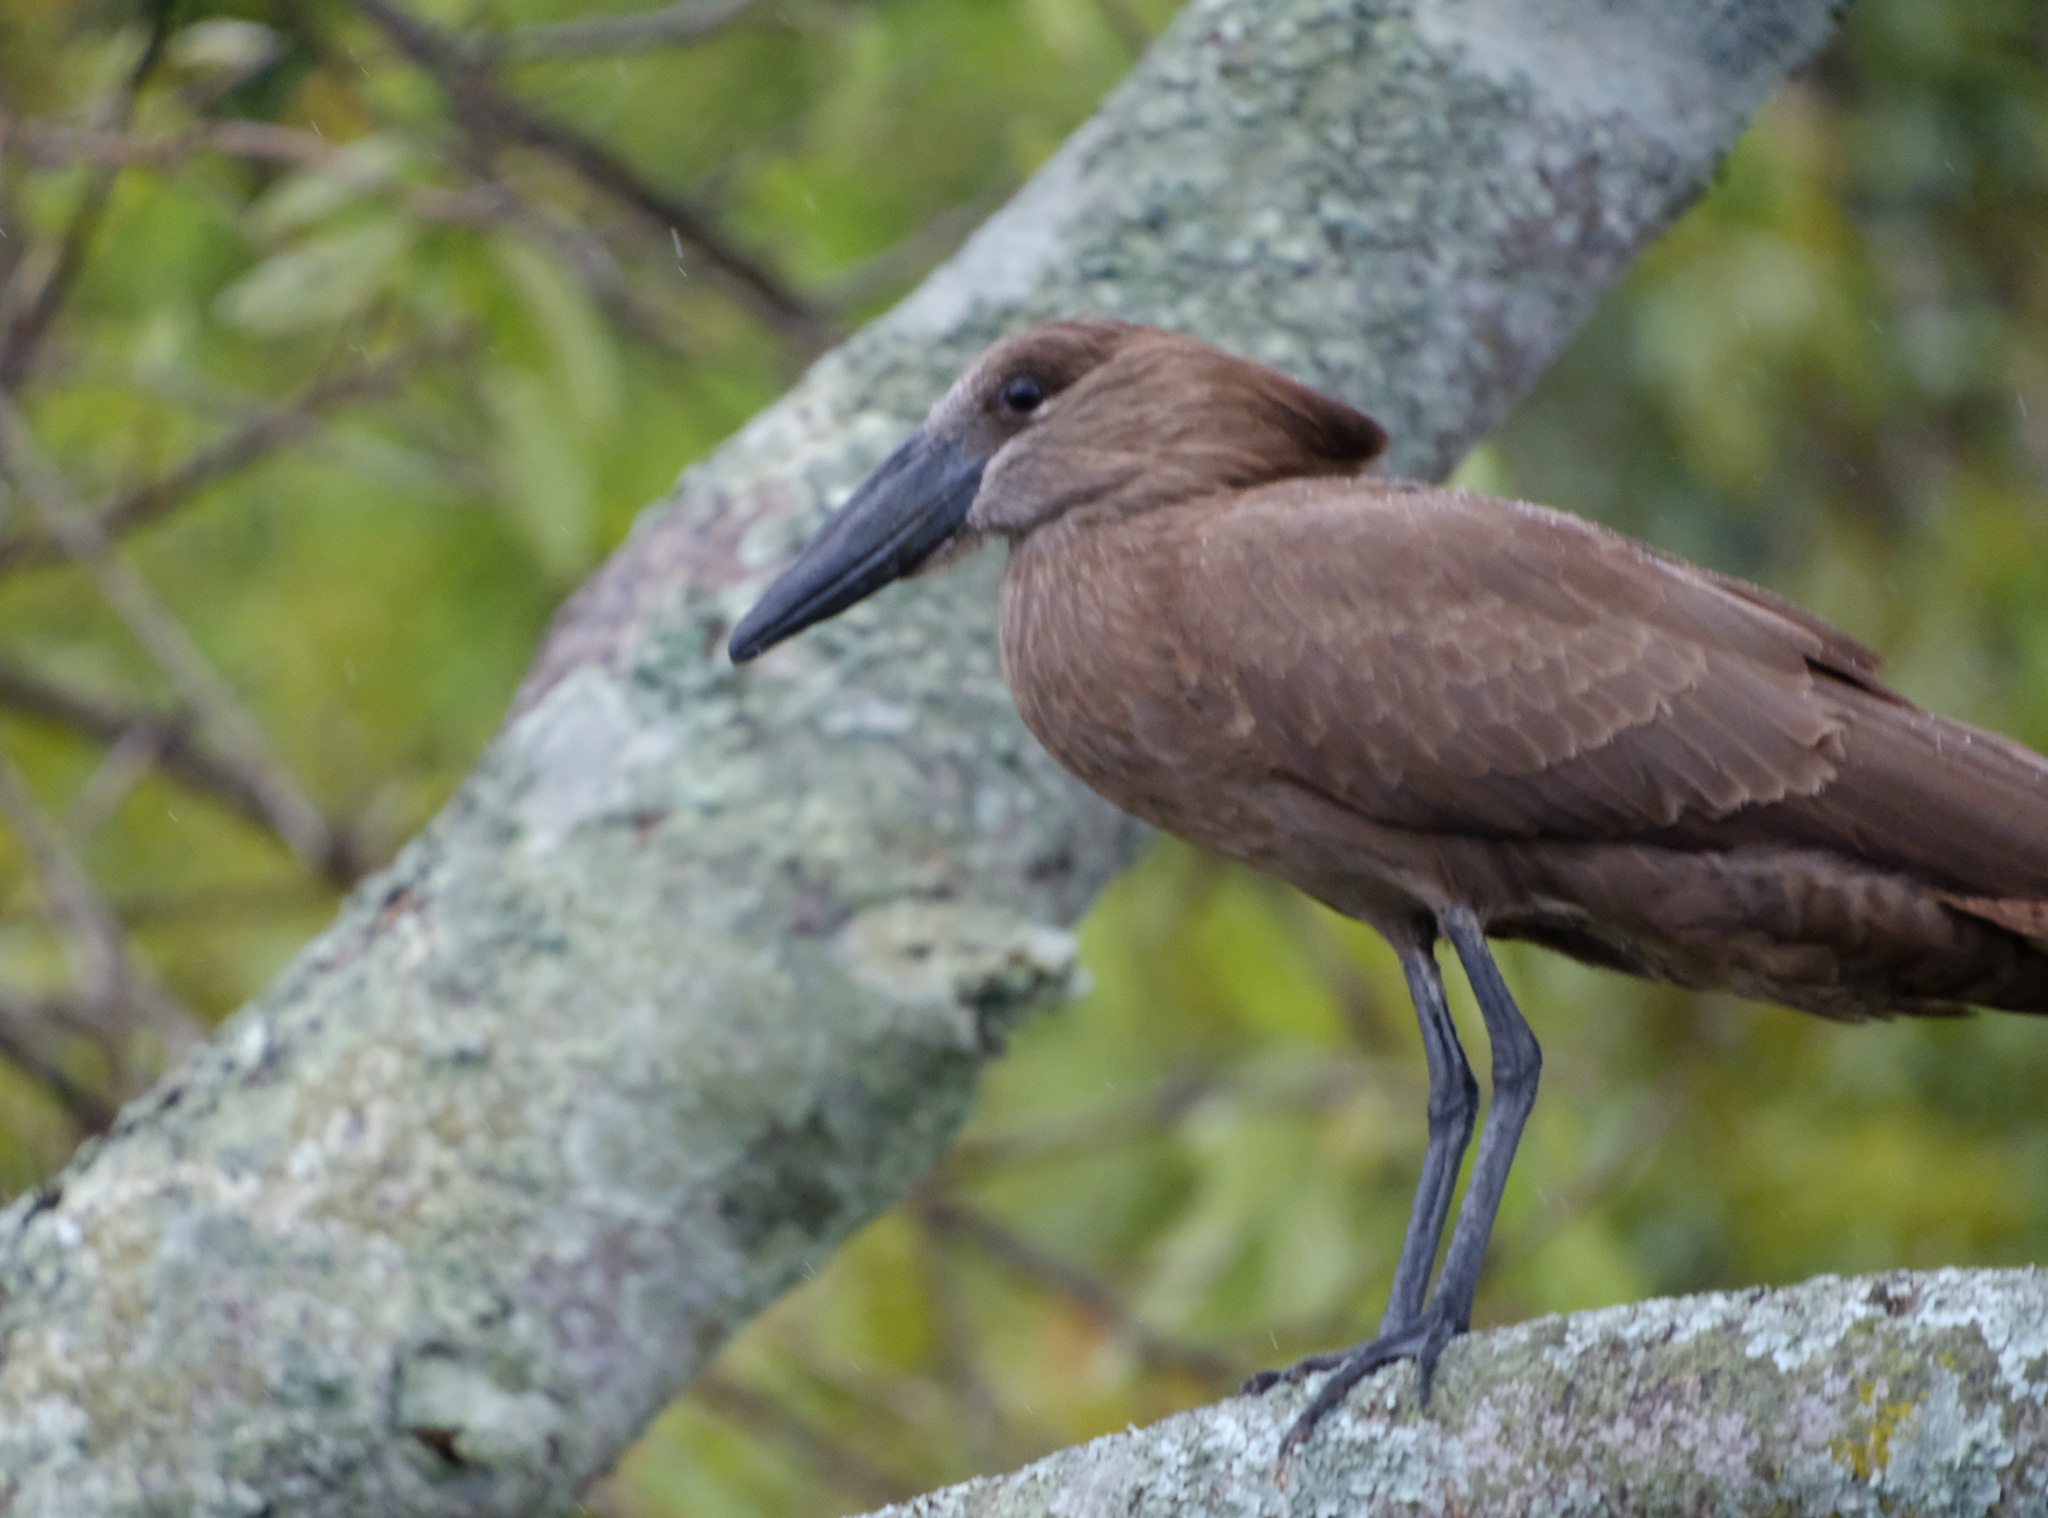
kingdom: Animalia
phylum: Chordata
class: Aves
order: Pelecaniformes
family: Scopidae
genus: Scopus
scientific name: Scopus umbretta
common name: Hamerkop
